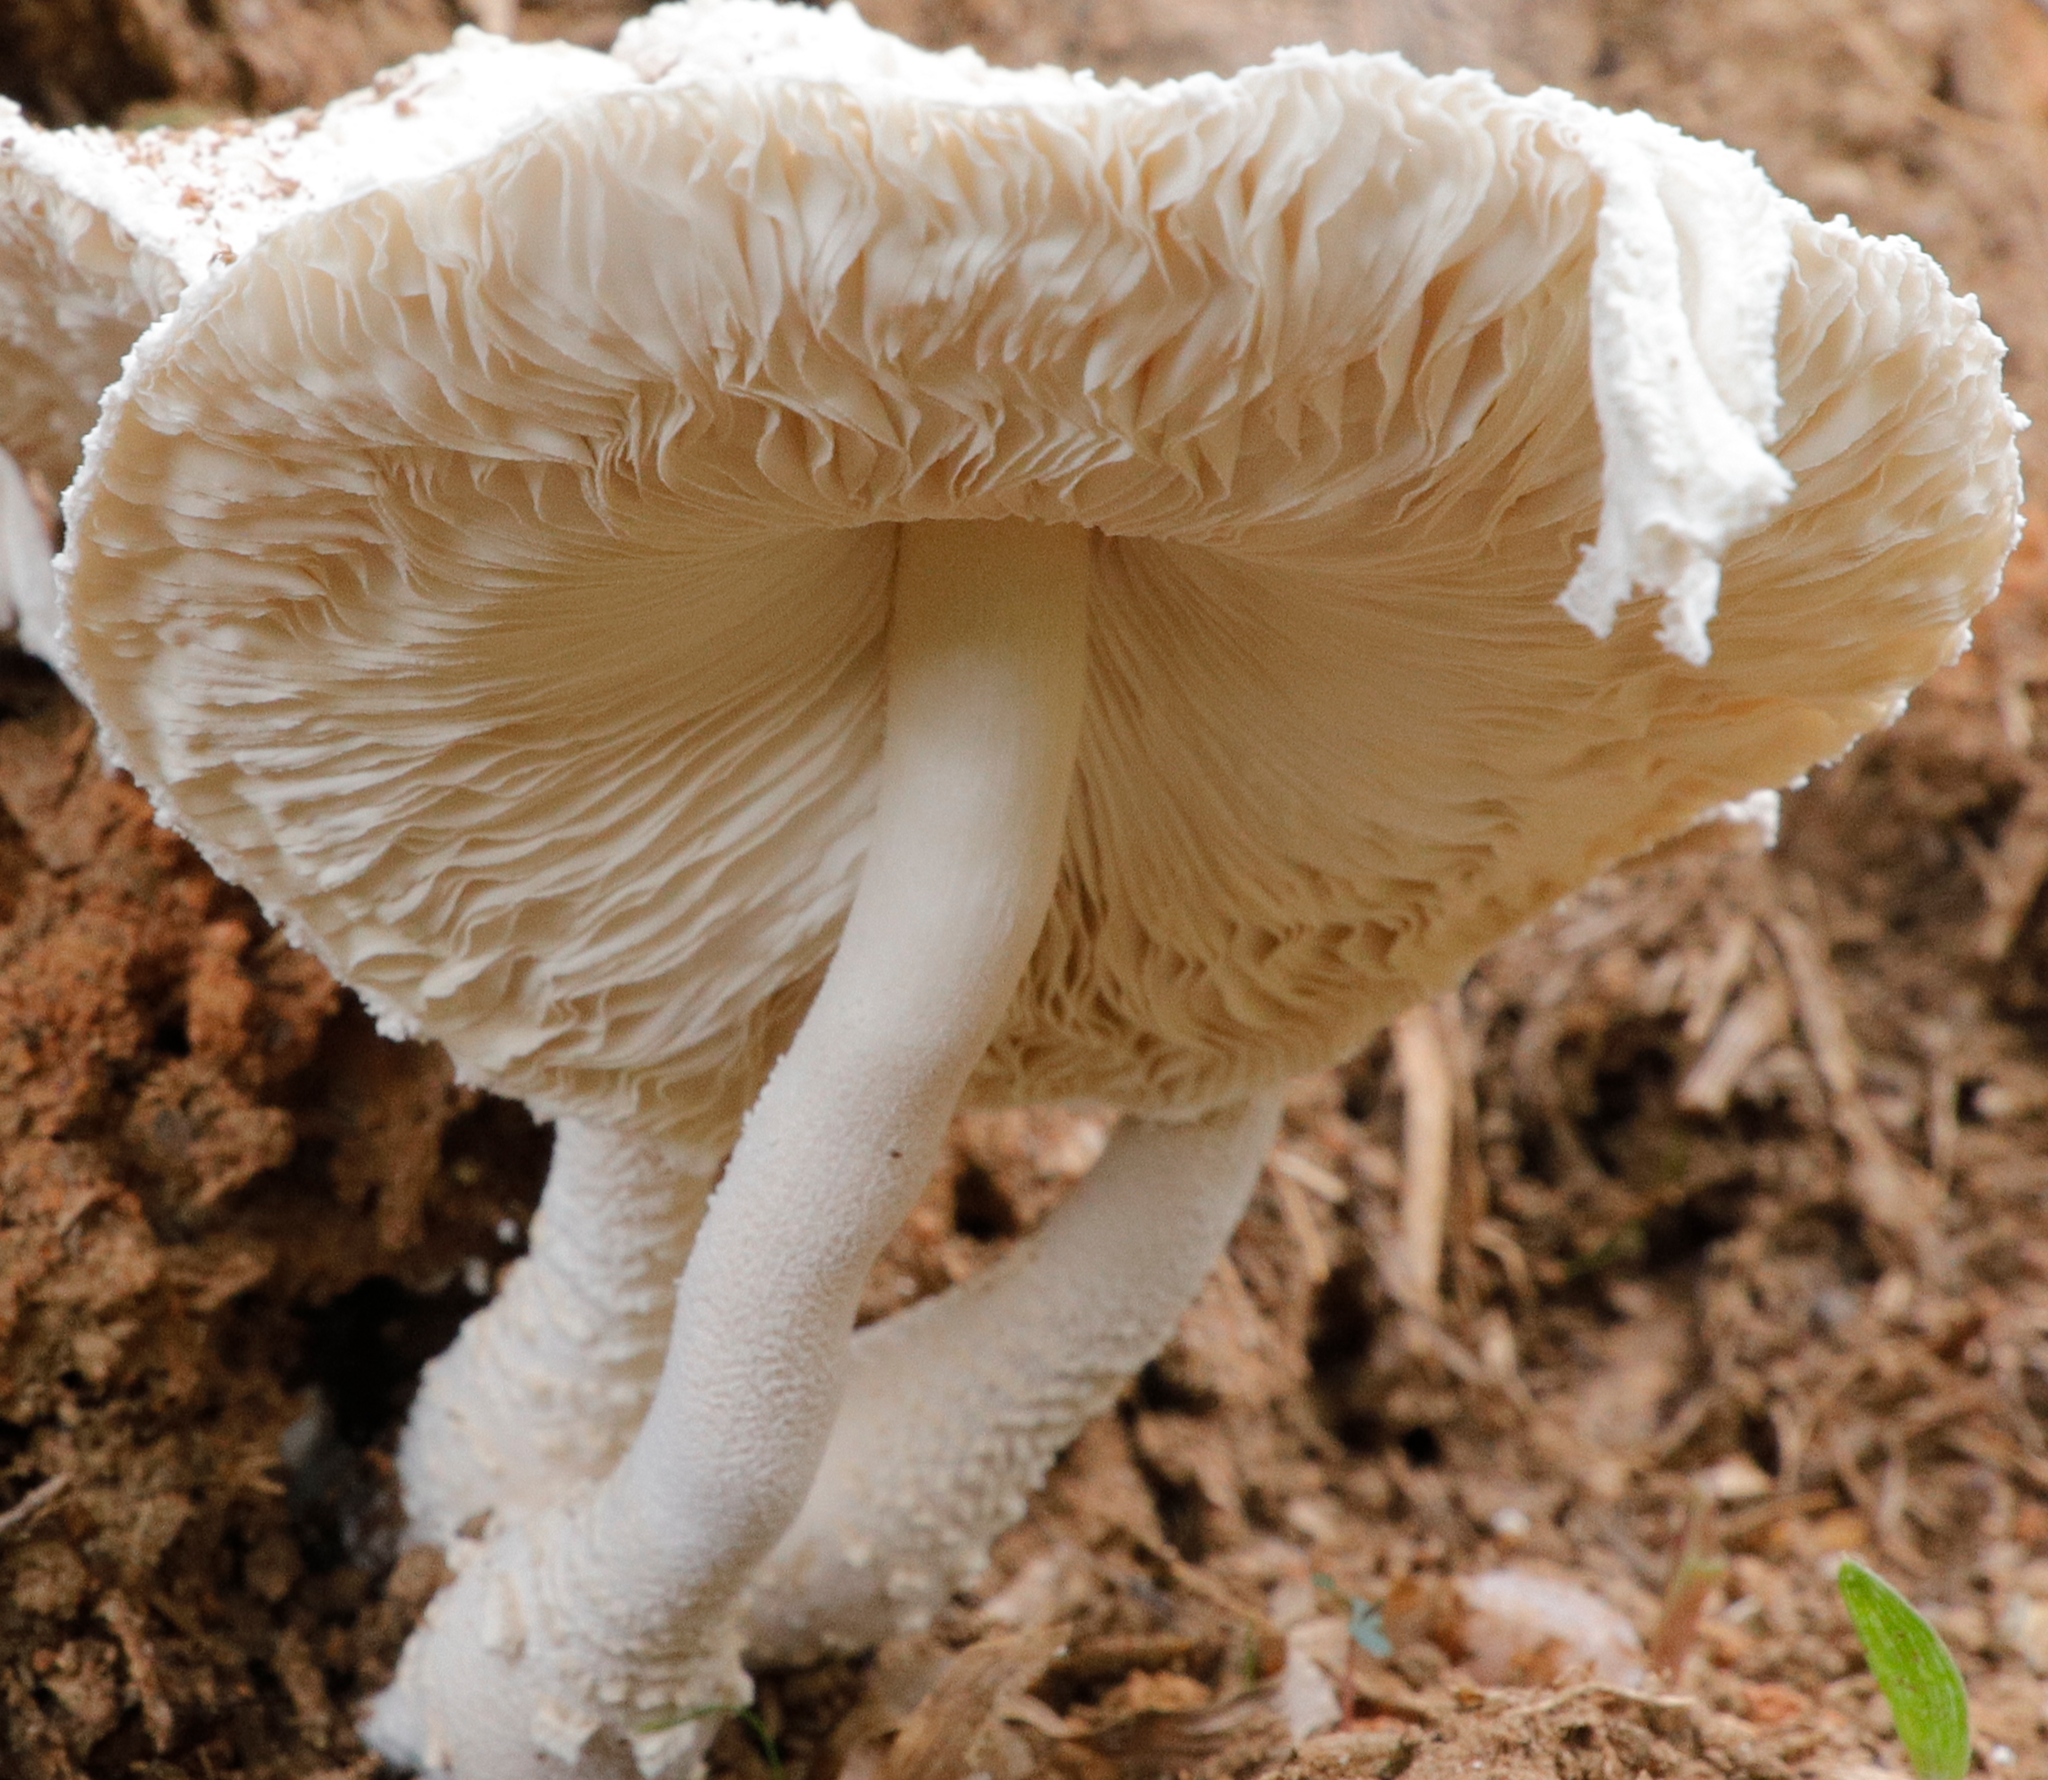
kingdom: Fungi
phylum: Basidiomycota
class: Agaricomycetes
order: Agaricales
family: Agaricaceae
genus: Leucocoprinus
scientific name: Leucocoprinus cretaceus
